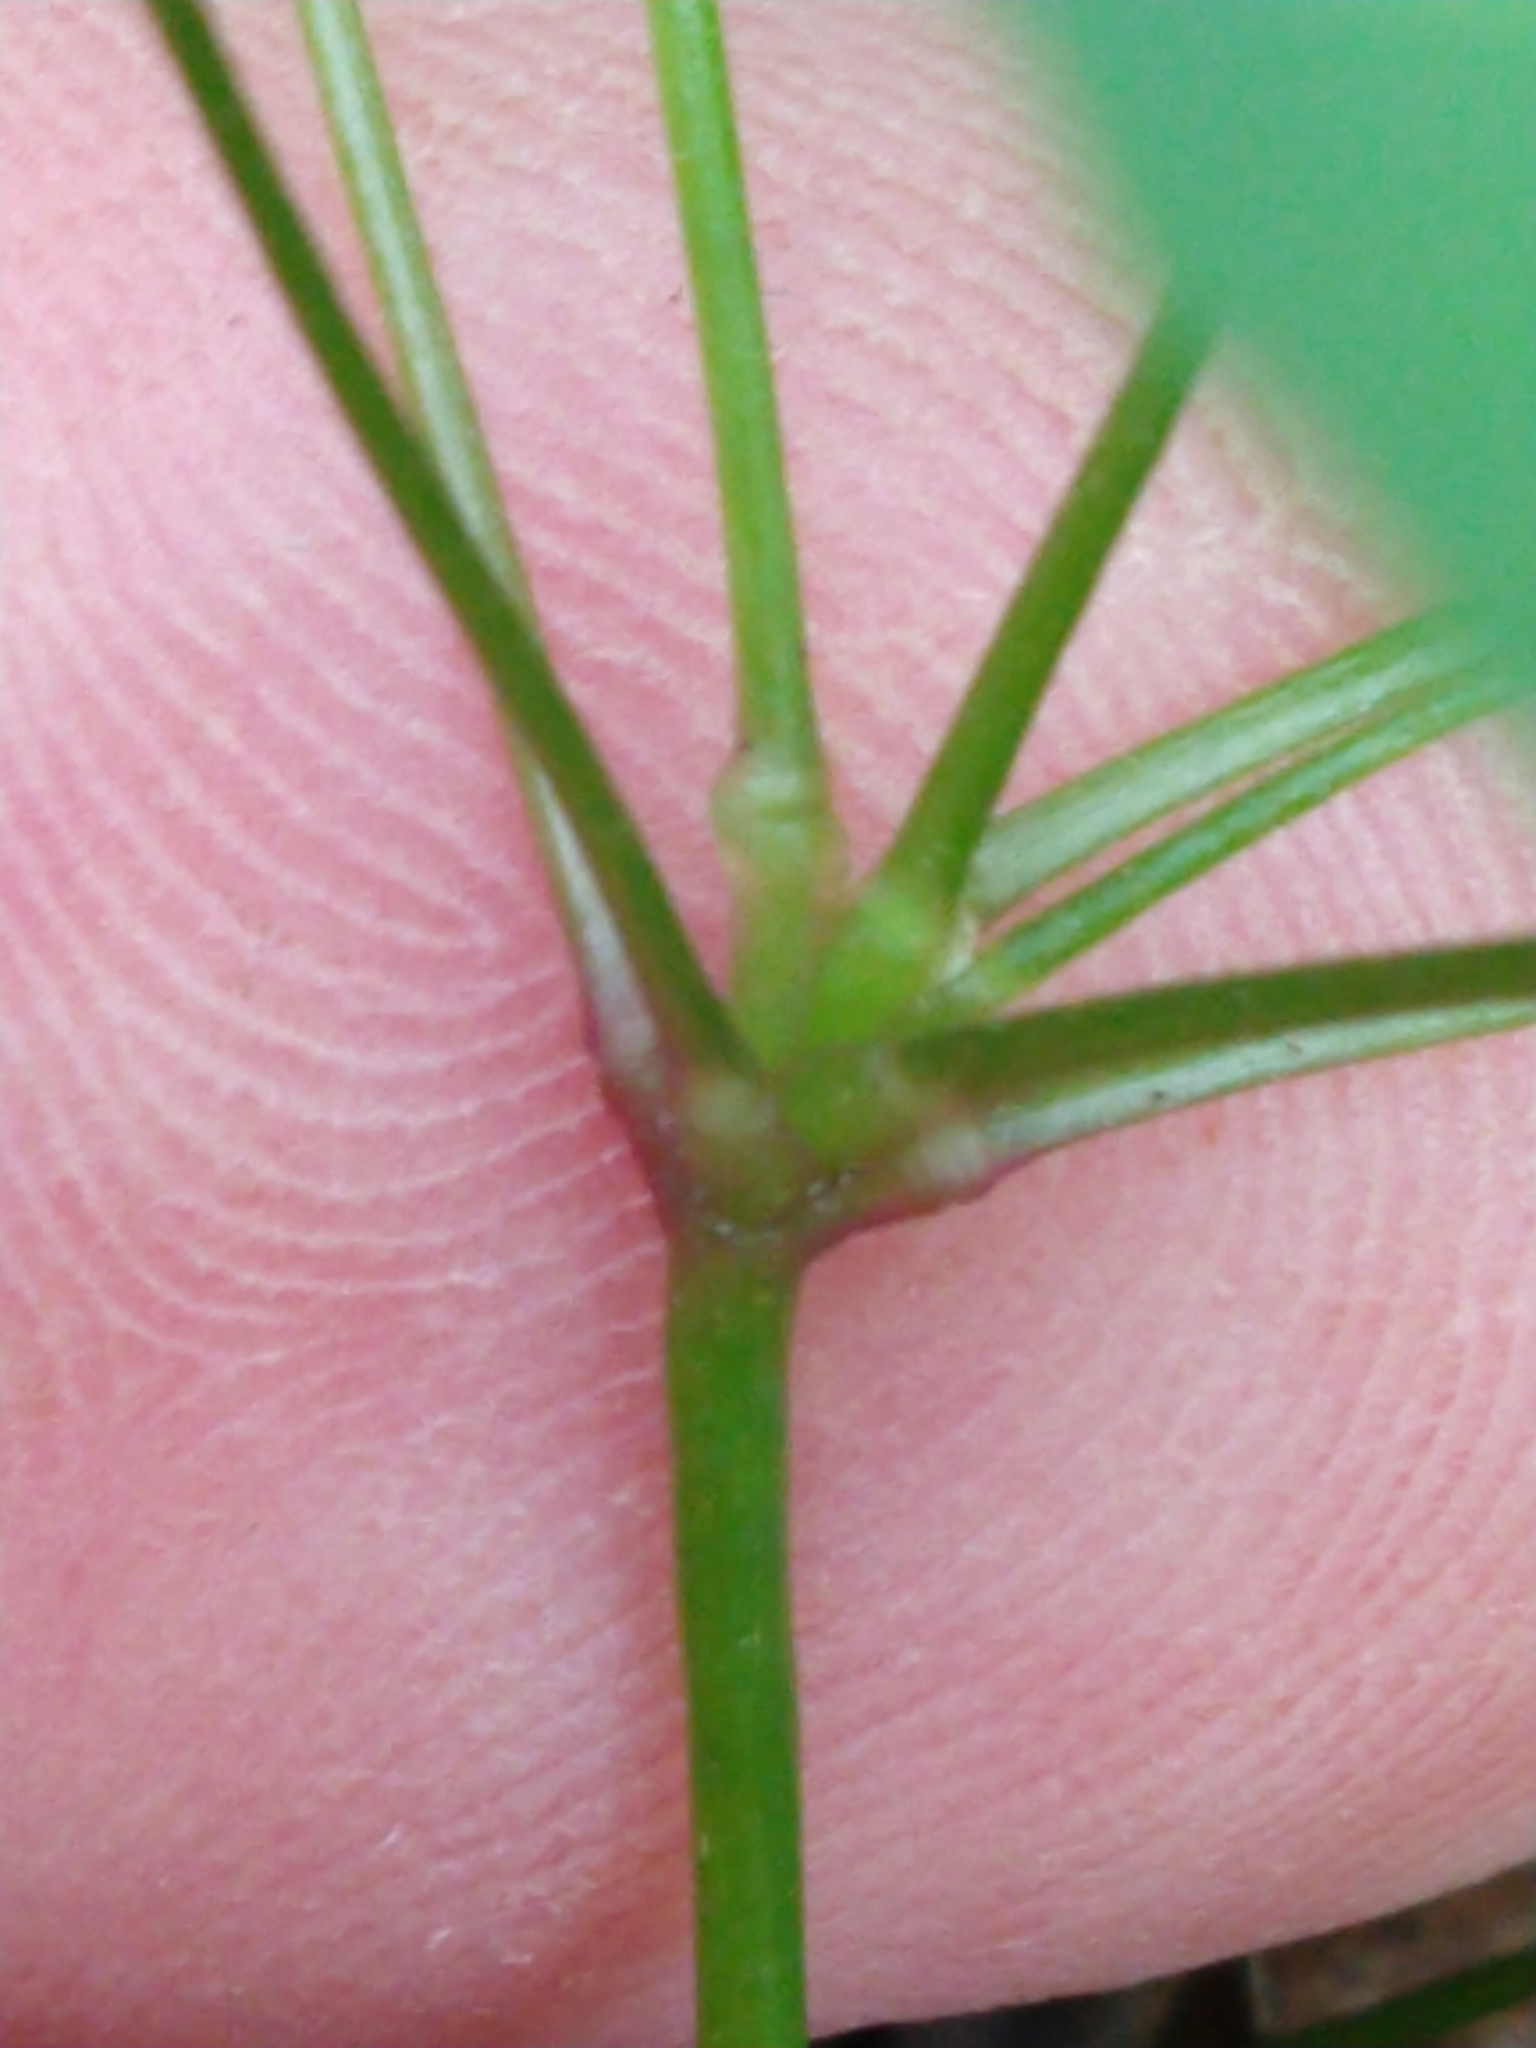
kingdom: Plantae
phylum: Tracheophyta
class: Magnoliopsida
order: Oxalidales
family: Oxalidaceae
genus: Oxalis
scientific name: Oxalis incarnata
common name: Pale pink-sorrel
